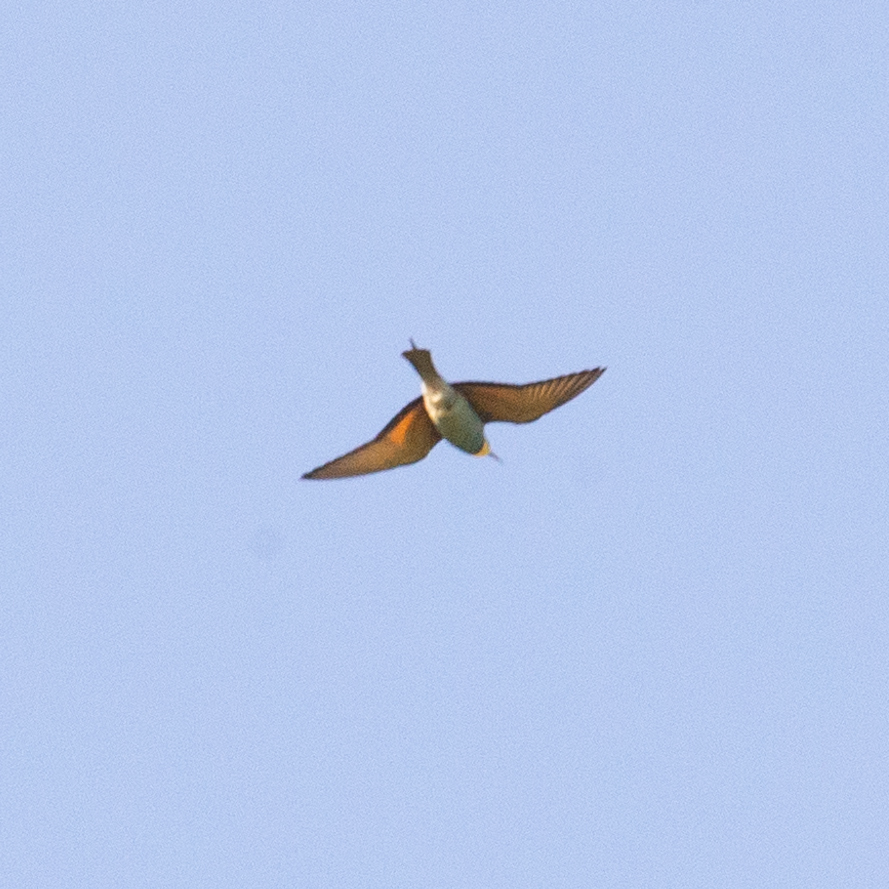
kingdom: Animalia
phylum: Chordata
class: Aves
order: Coraciiformes
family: Meropidae
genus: Merops
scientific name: Merops apiaster
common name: European bee-eater
